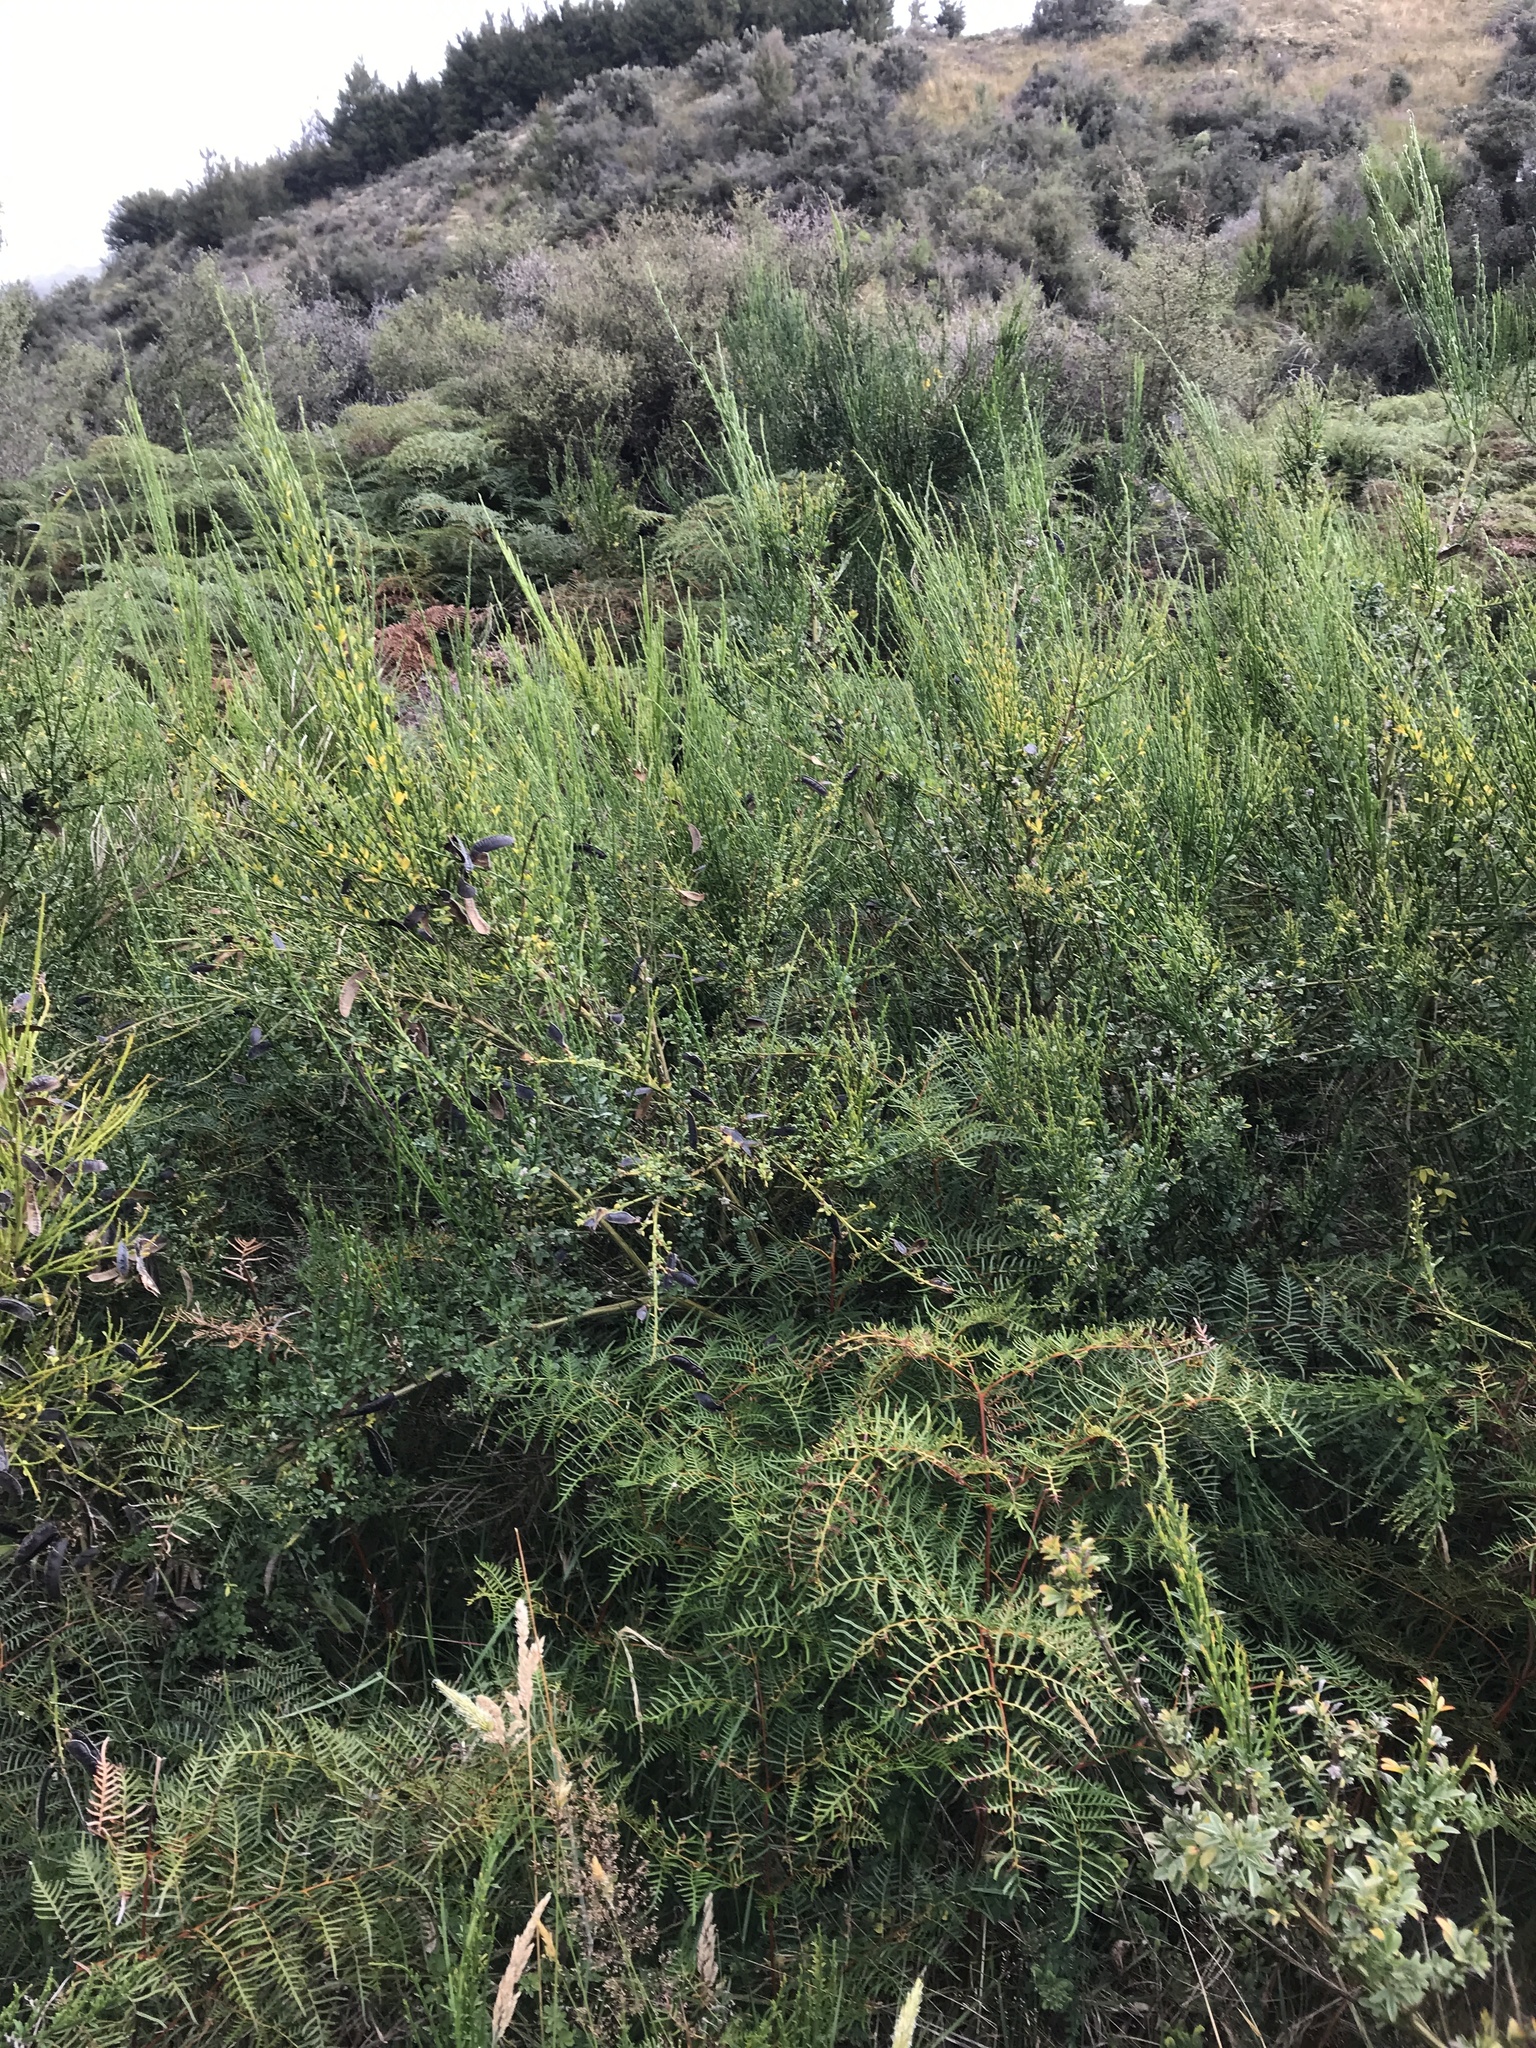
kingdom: Plantae
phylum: Tracheophyta
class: Magnoliopsida
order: Fabales
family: Fabaceae
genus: Cytisus
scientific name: Cytisus scoparius
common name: Scotch broom
